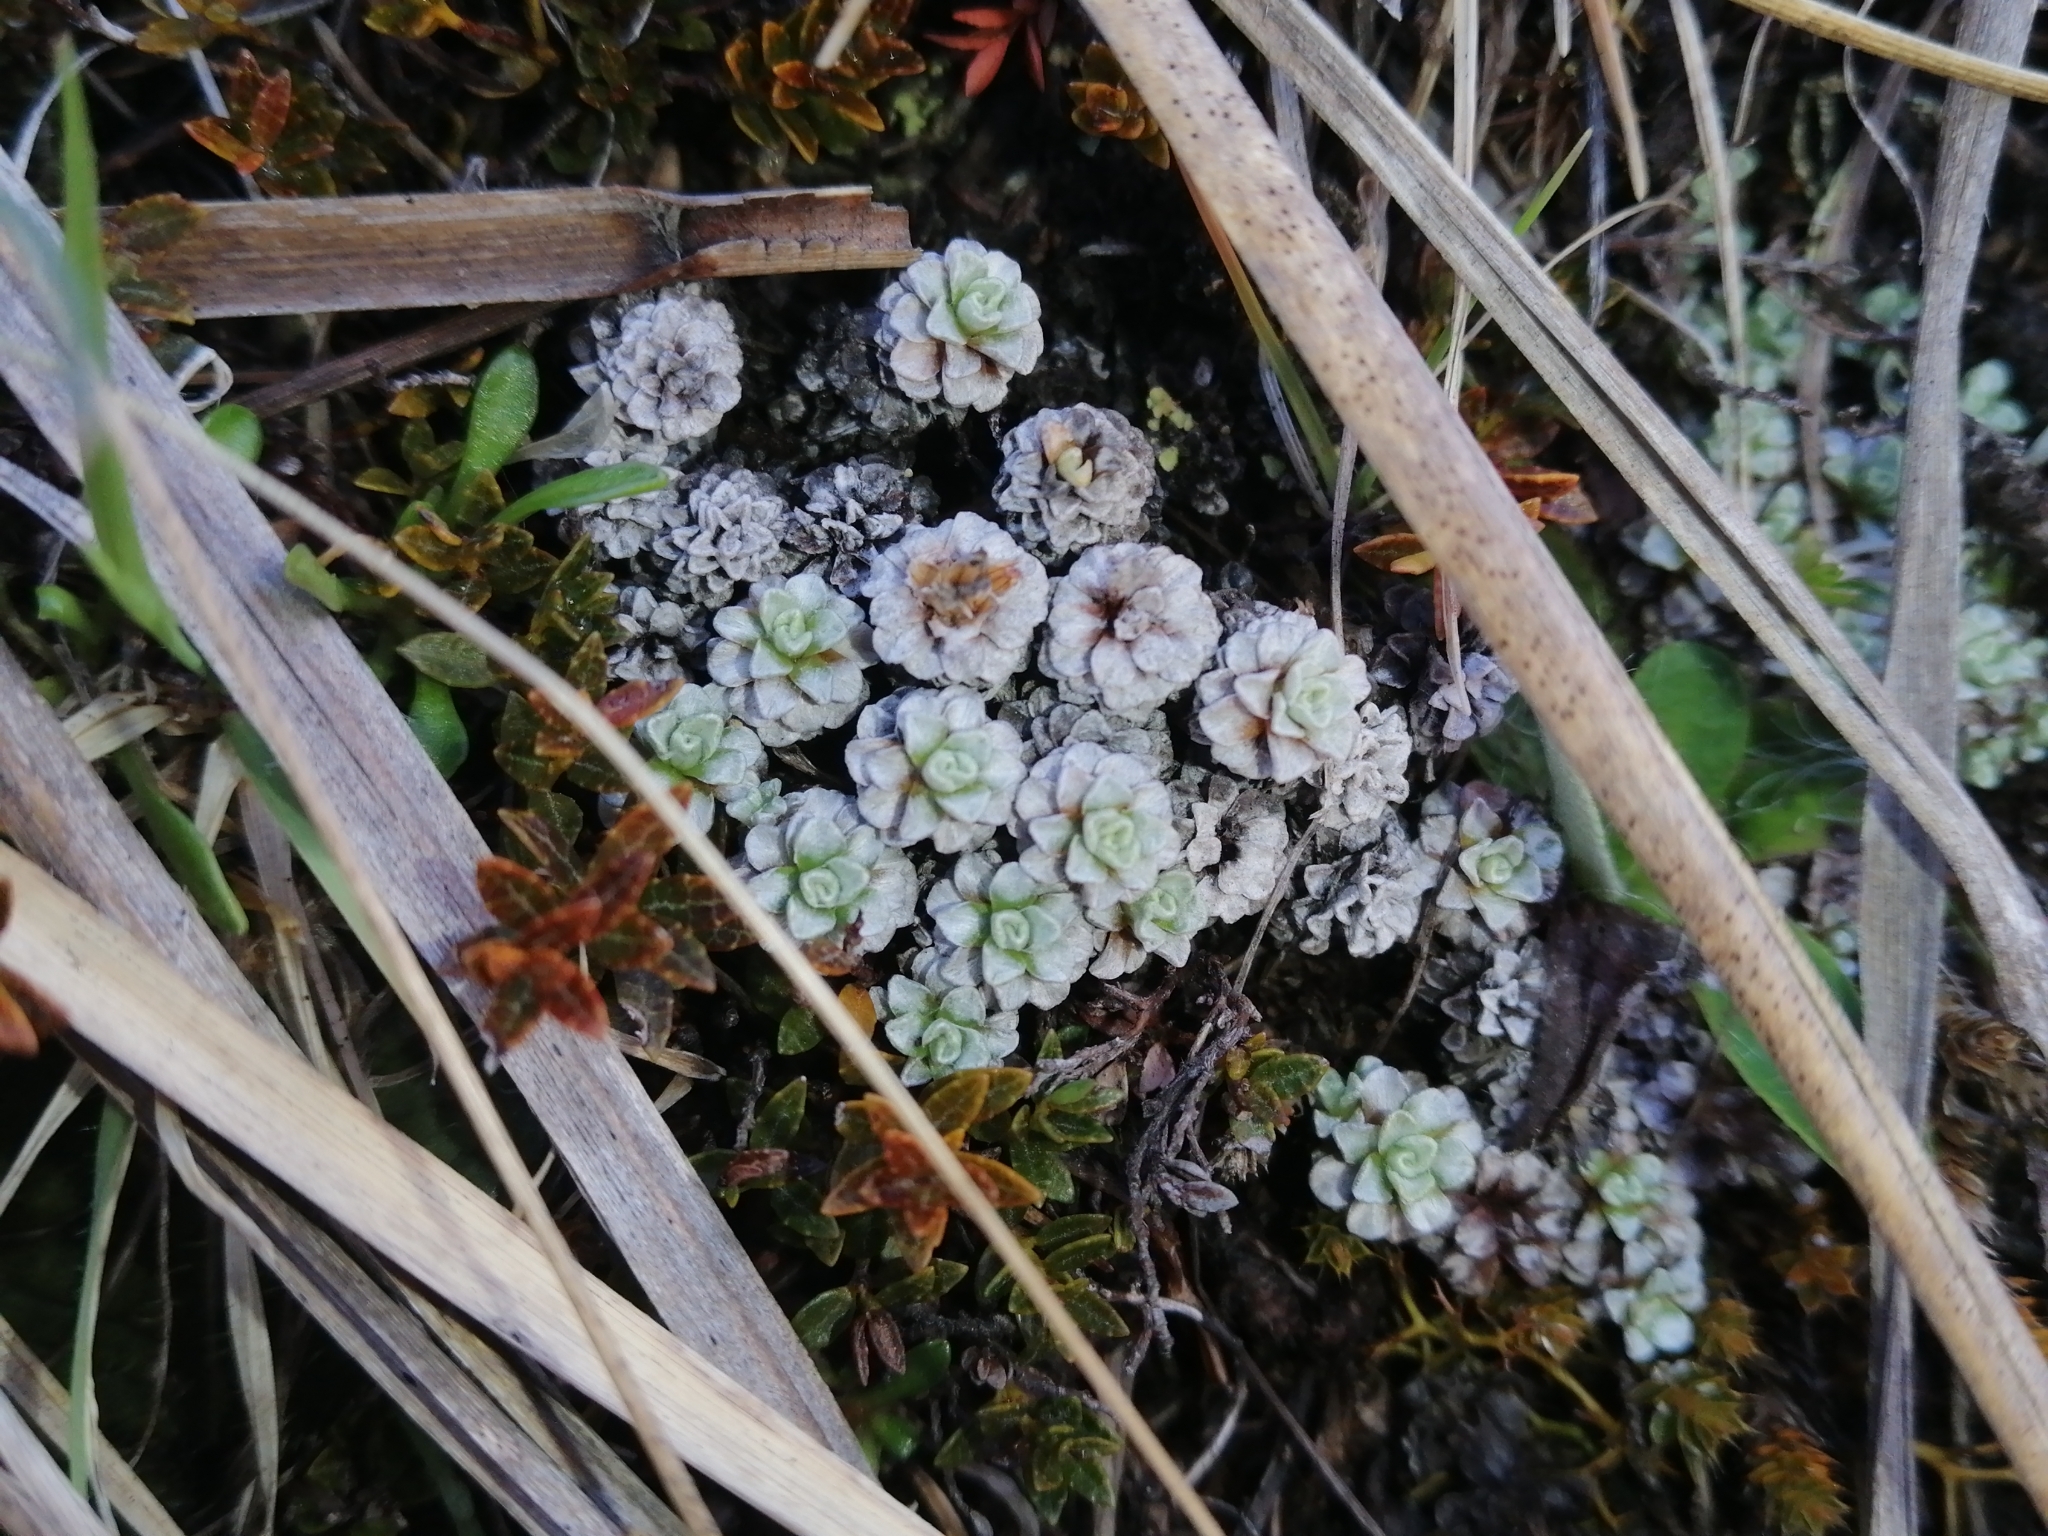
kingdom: Plantae
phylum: Tracheophyta
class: Magnoliopsida
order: Asterales
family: Asteraceae
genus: Raoulia
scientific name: Raoulia parkii
